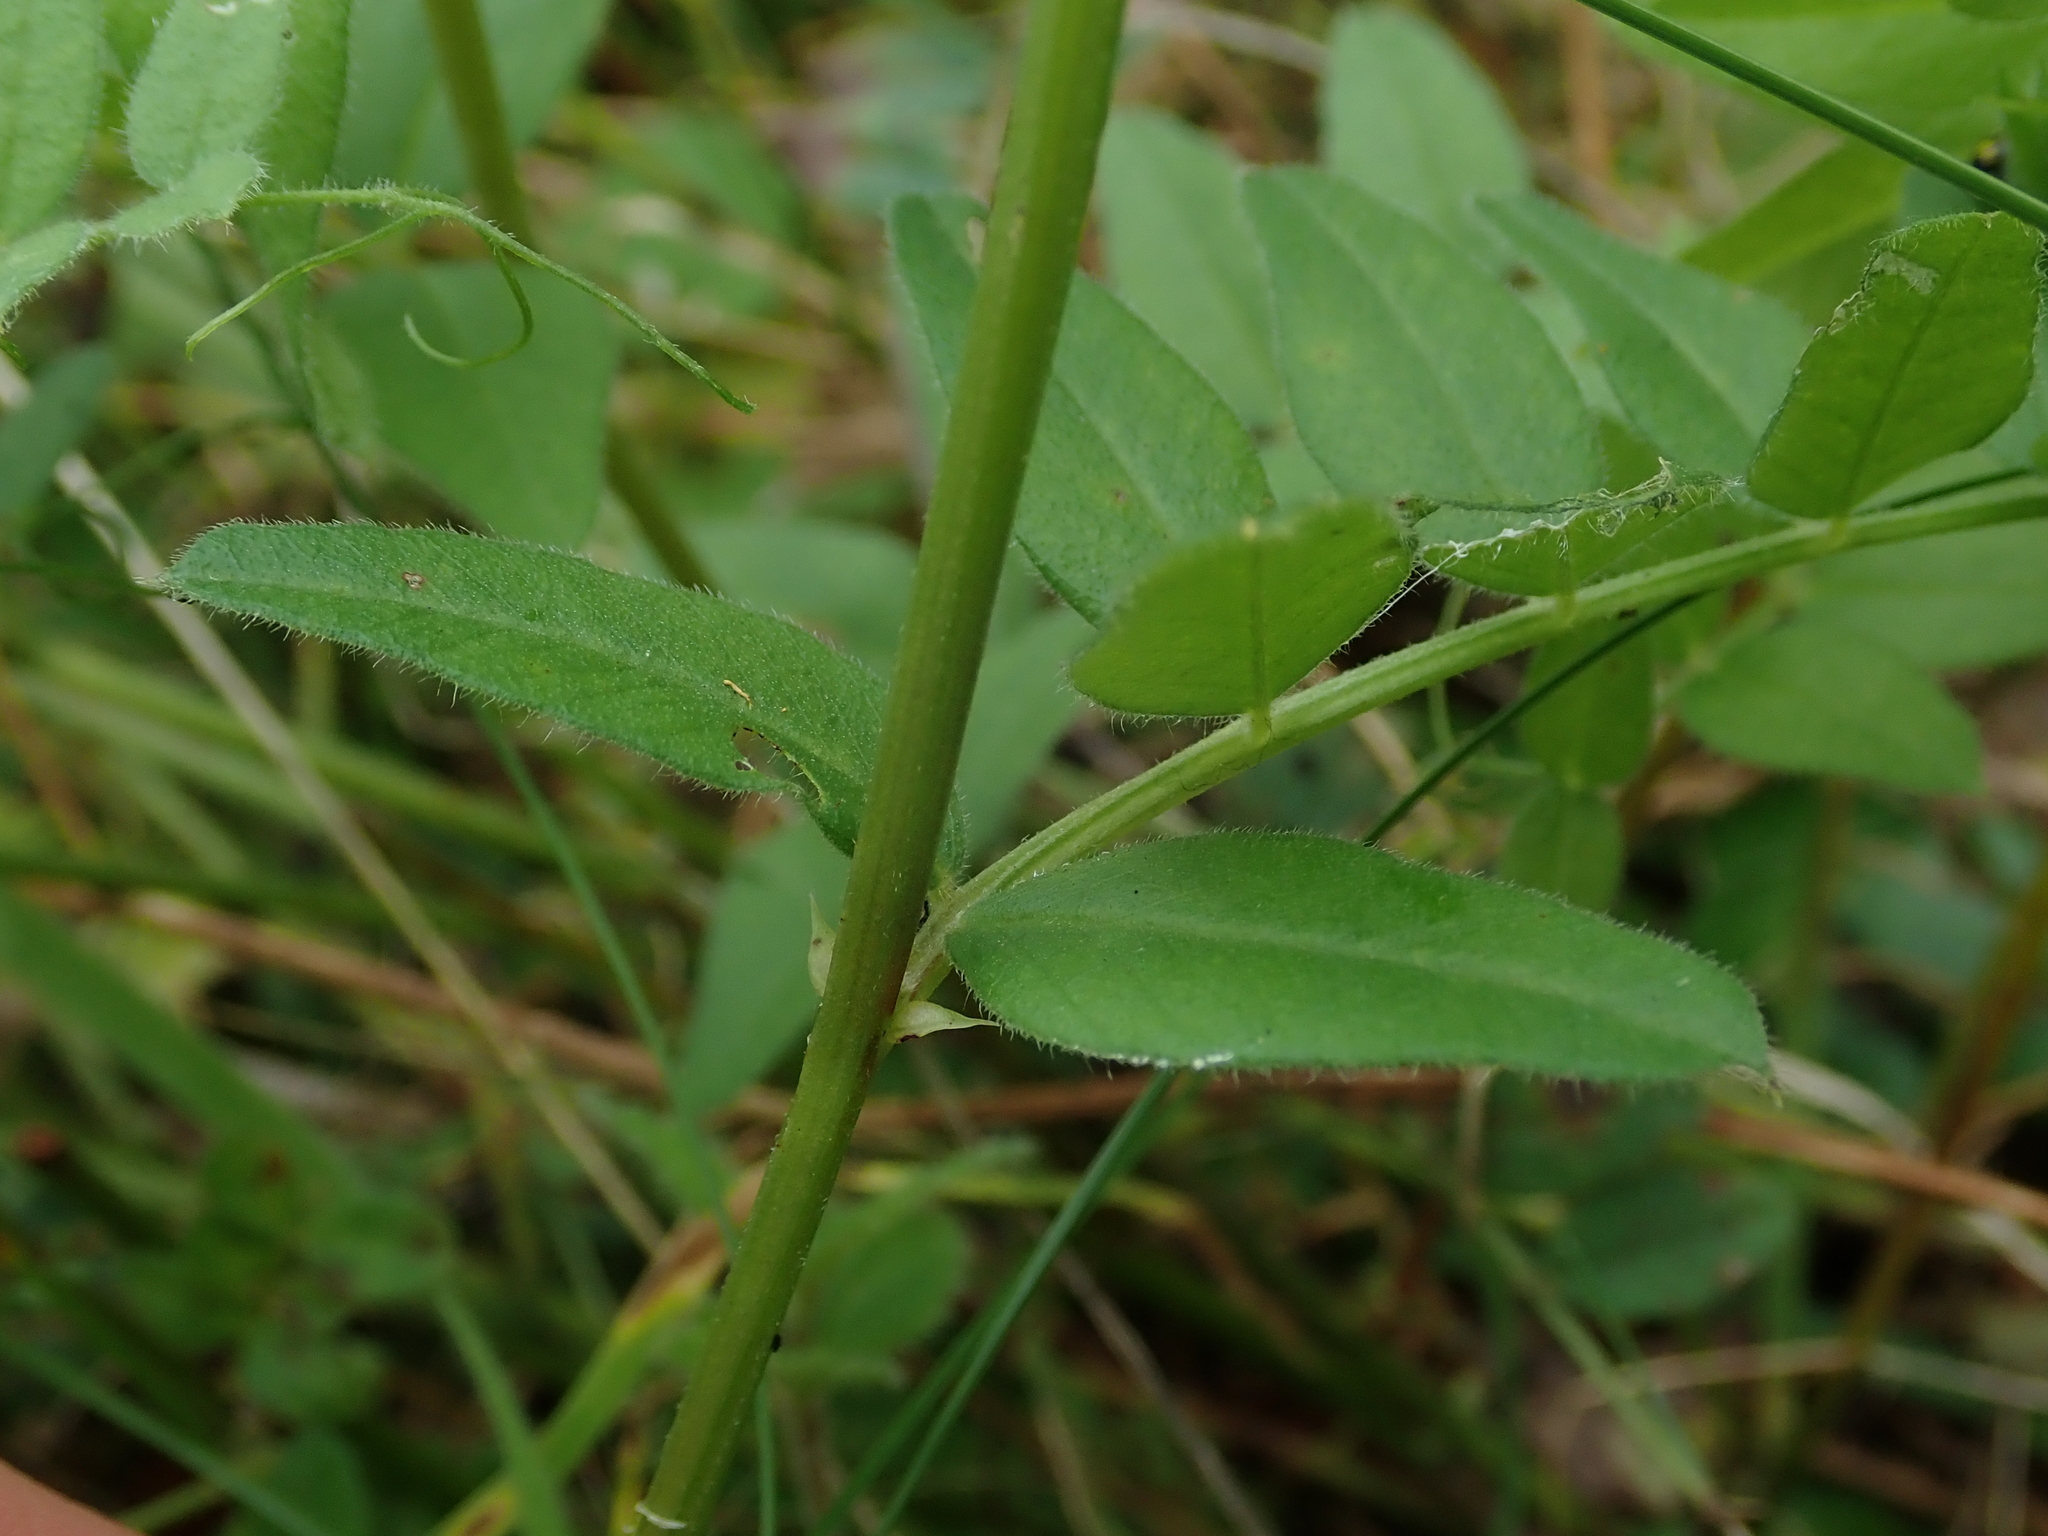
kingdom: Plantae
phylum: Tracheophyta
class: Magnoliopsida
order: Fabales
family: Fabaceae
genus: Vicia
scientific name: Vicia sepium
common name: Bush vetch
